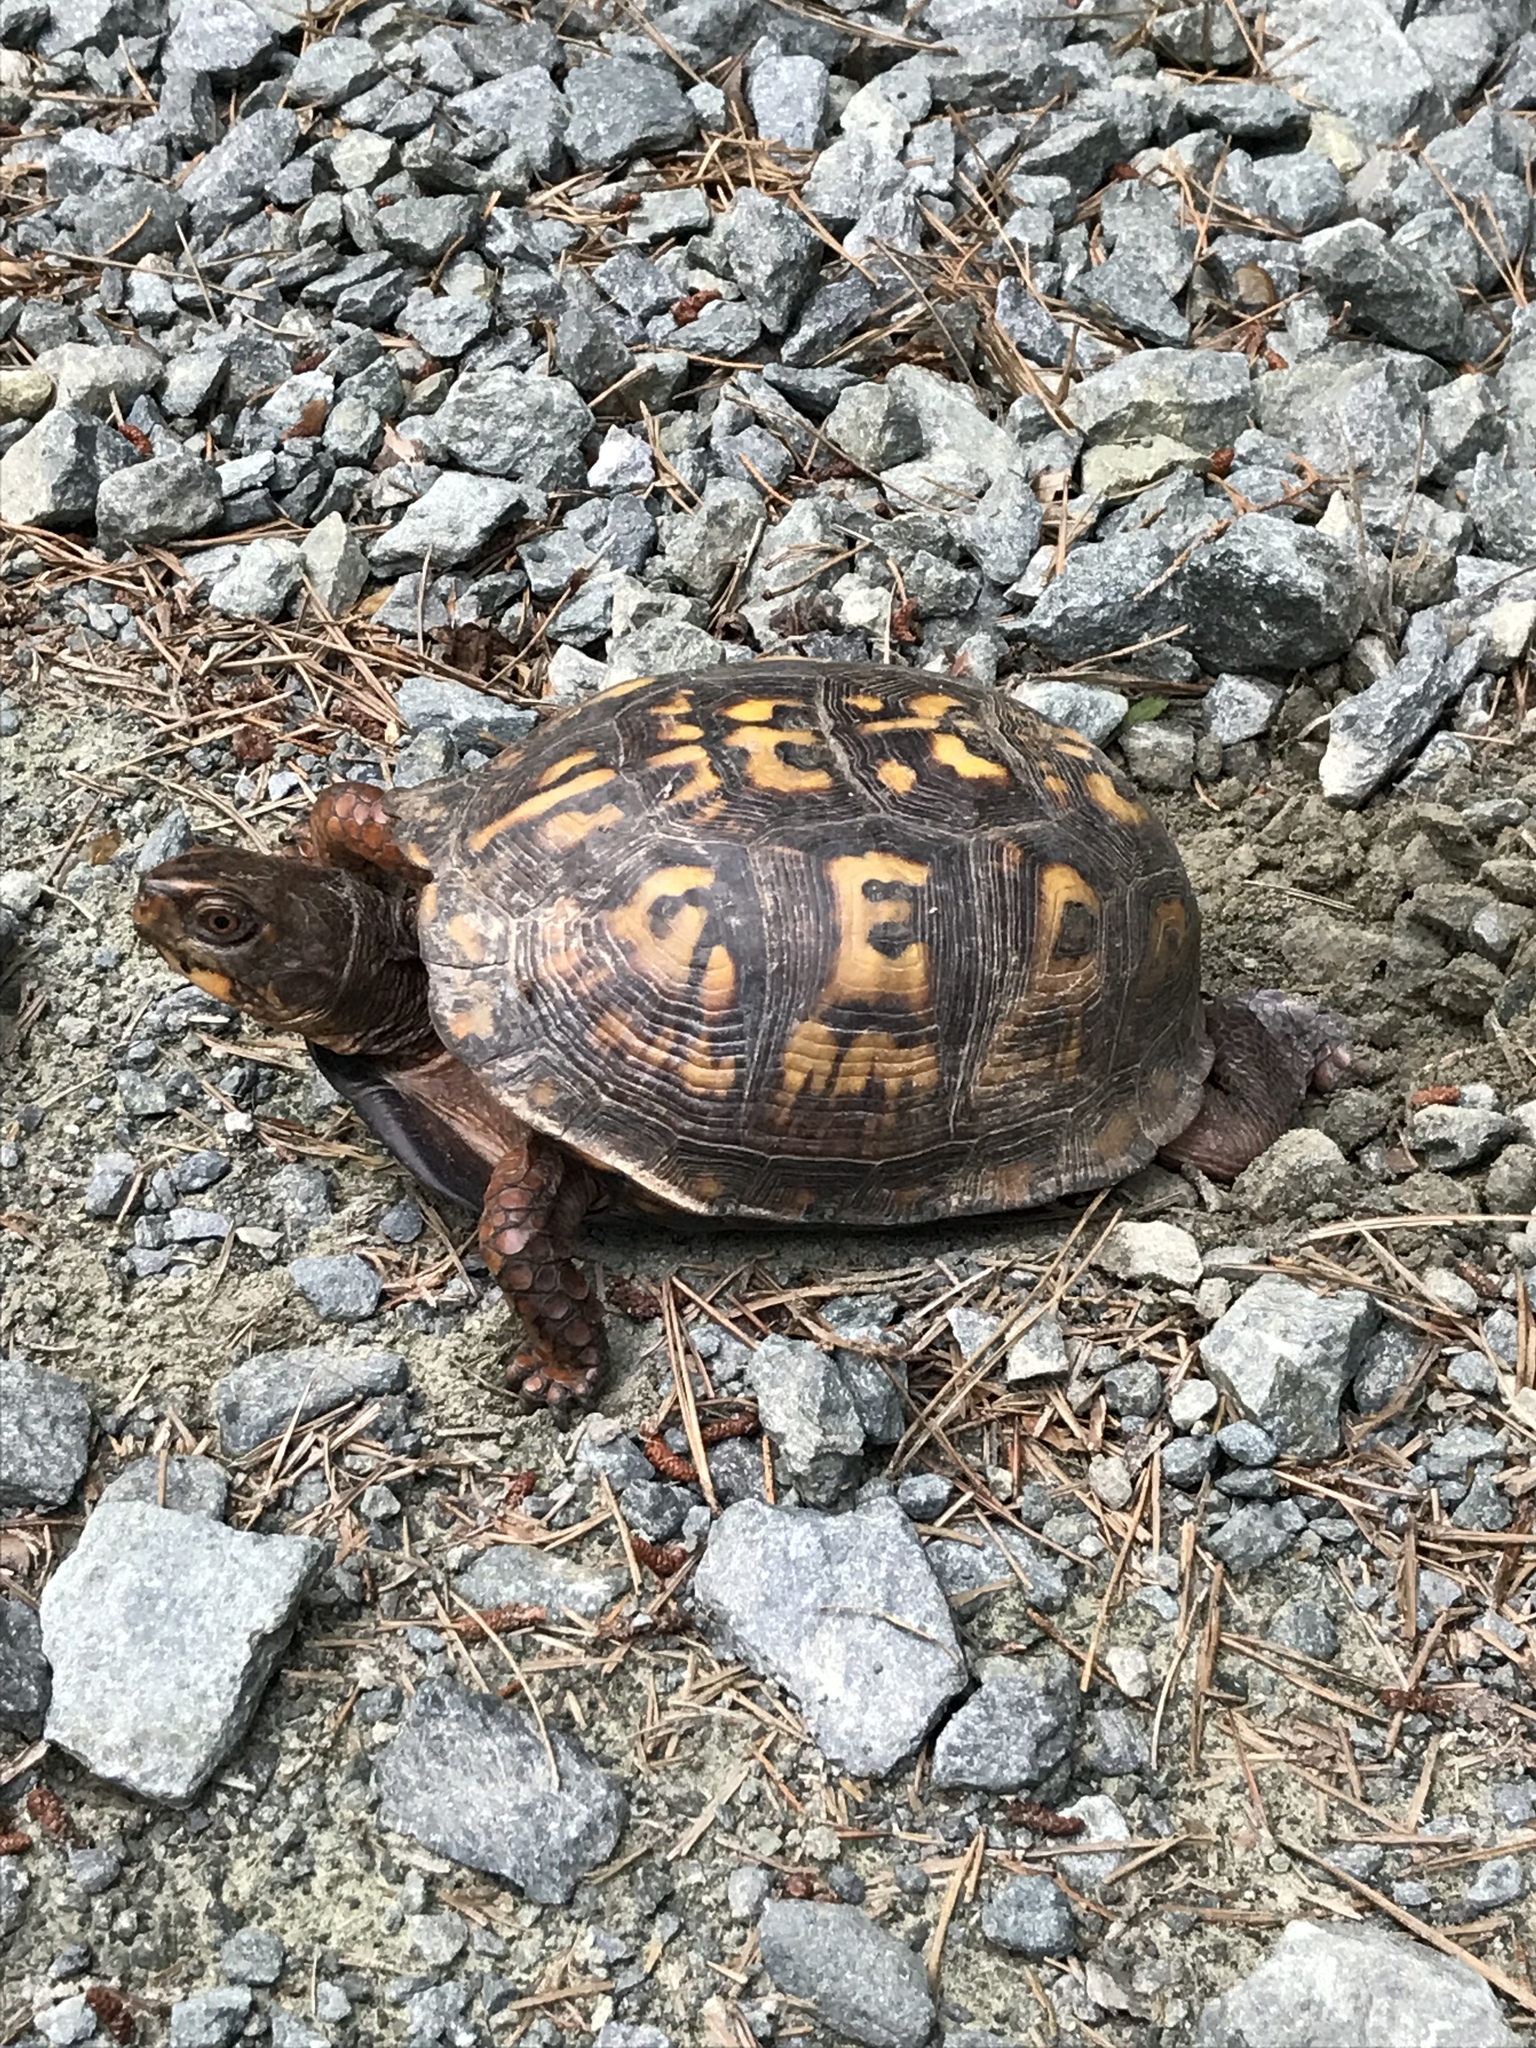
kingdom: Animalia
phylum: Chordata
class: Testudines
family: Emydidae
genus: Terrapene
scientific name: Terrapene carolina
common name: Common box turtle
